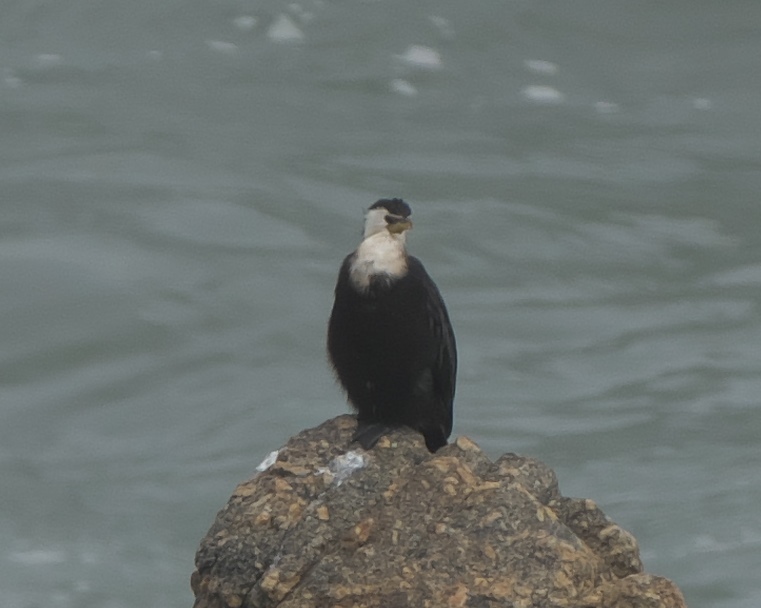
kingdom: Animalia
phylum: Chordata
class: Aves
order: Suliformes
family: Phalacrocoracidae
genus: Microcarbo
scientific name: Microcarbo melanoleucos
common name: Little pied cormorant
